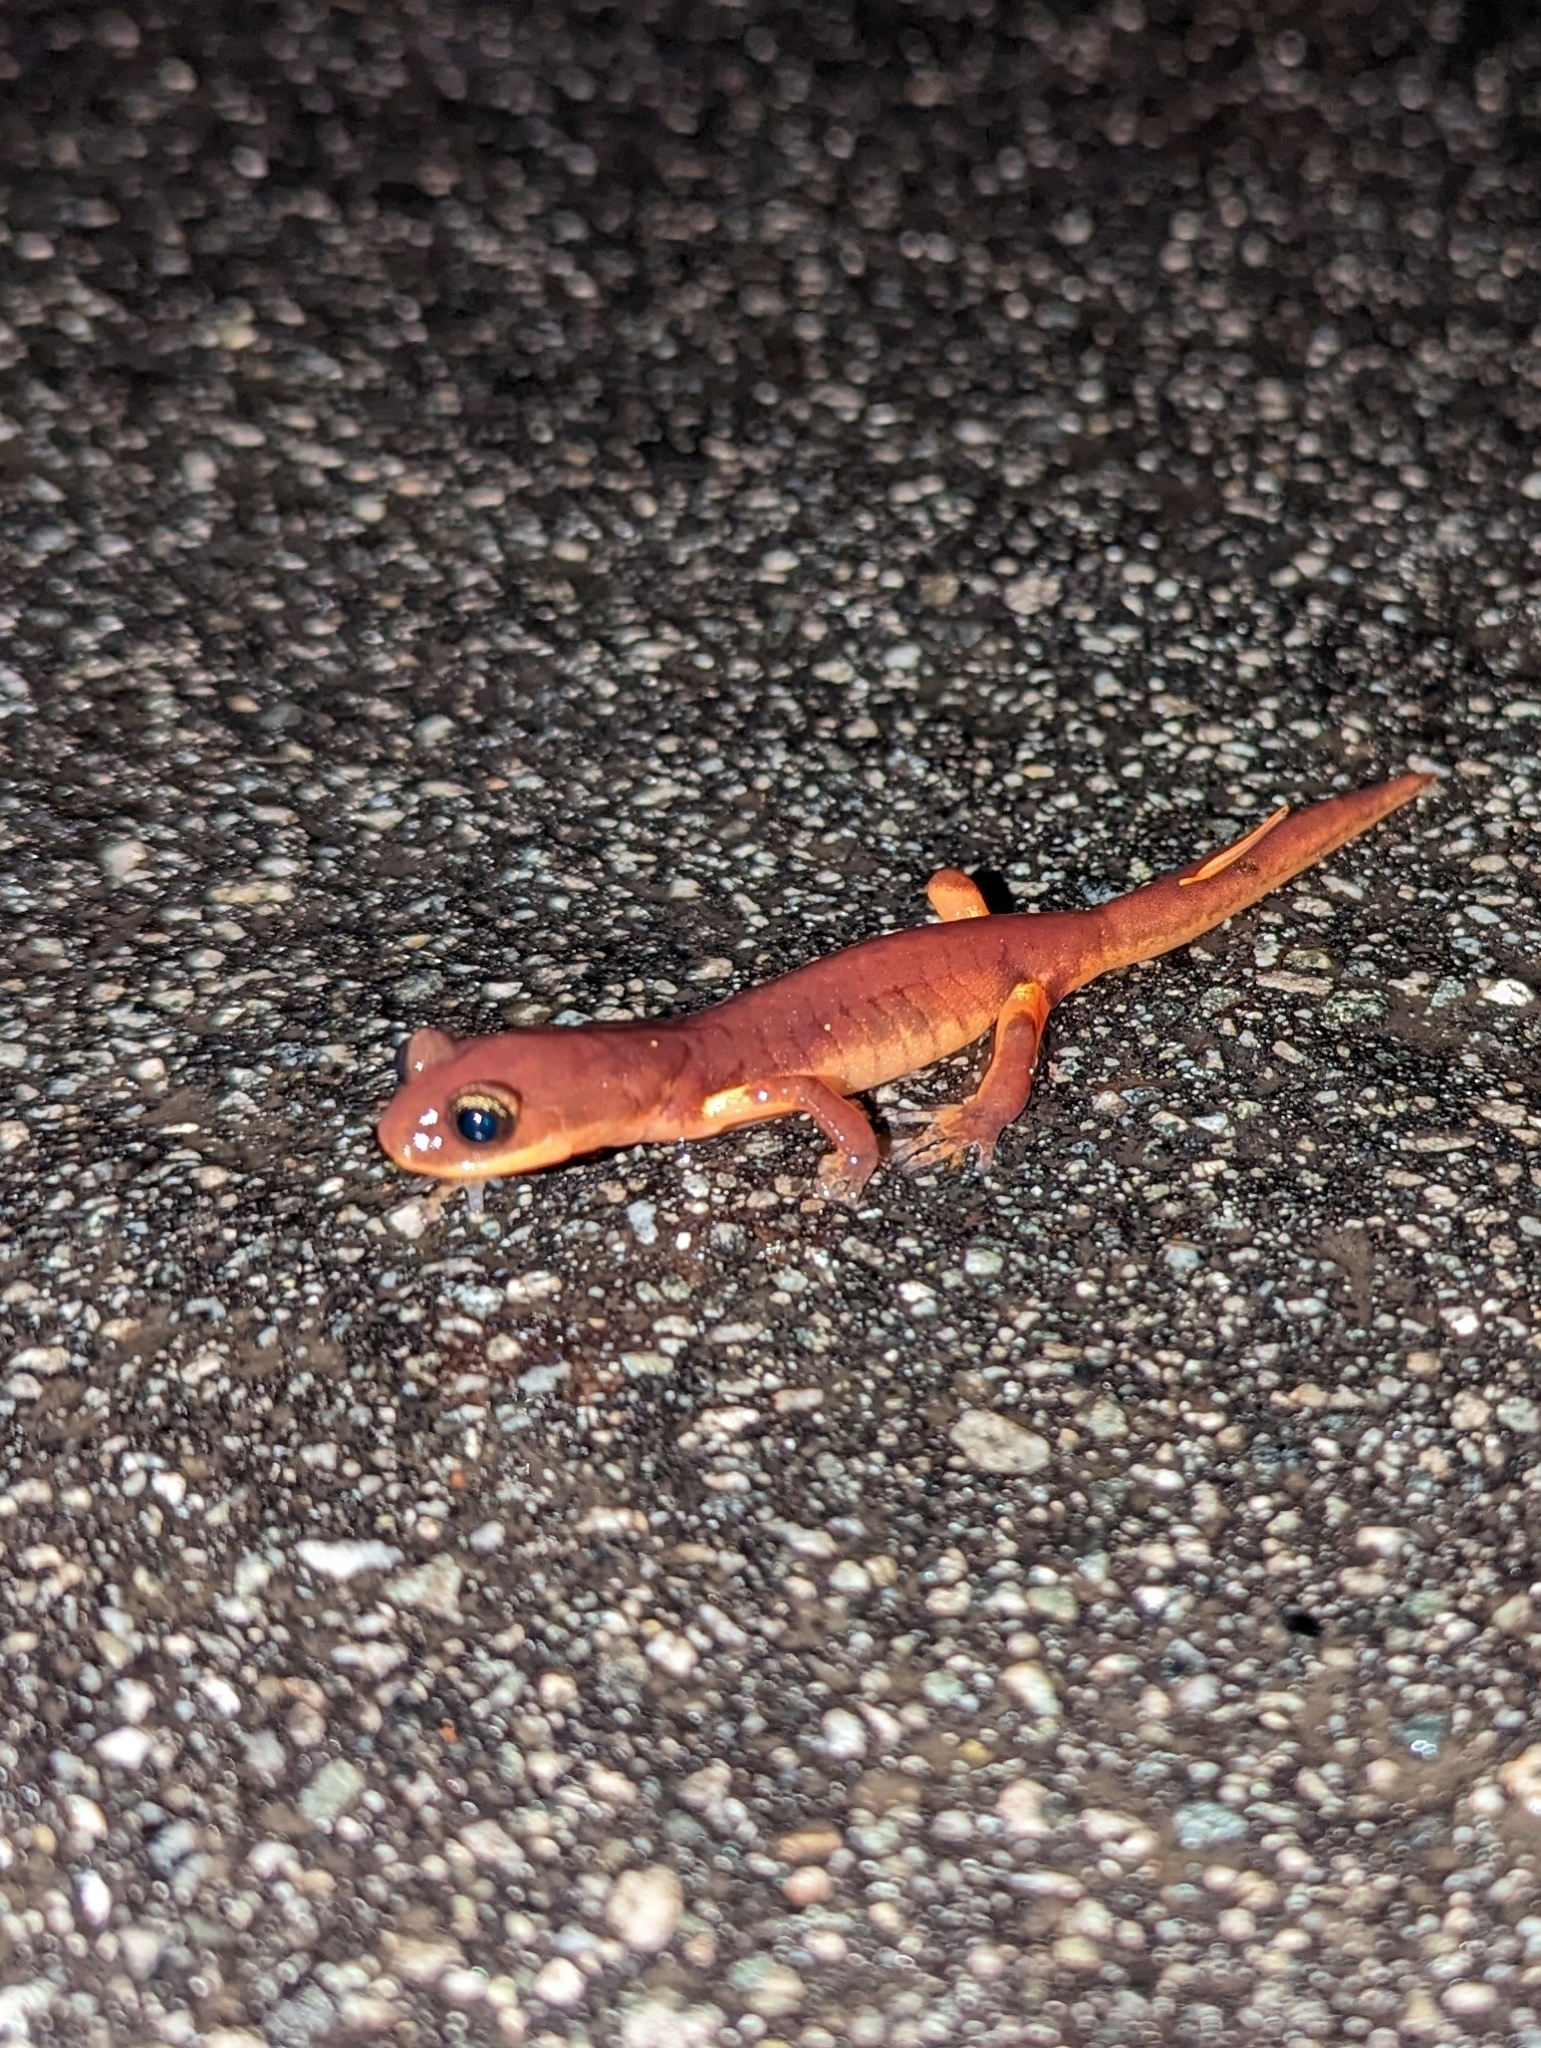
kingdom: Animalia
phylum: Chordata
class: Amphibia
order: Caudata
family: Plethodontidae
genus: Ensatina
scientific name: Ensatina eschscholtzii
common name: Ensatina
